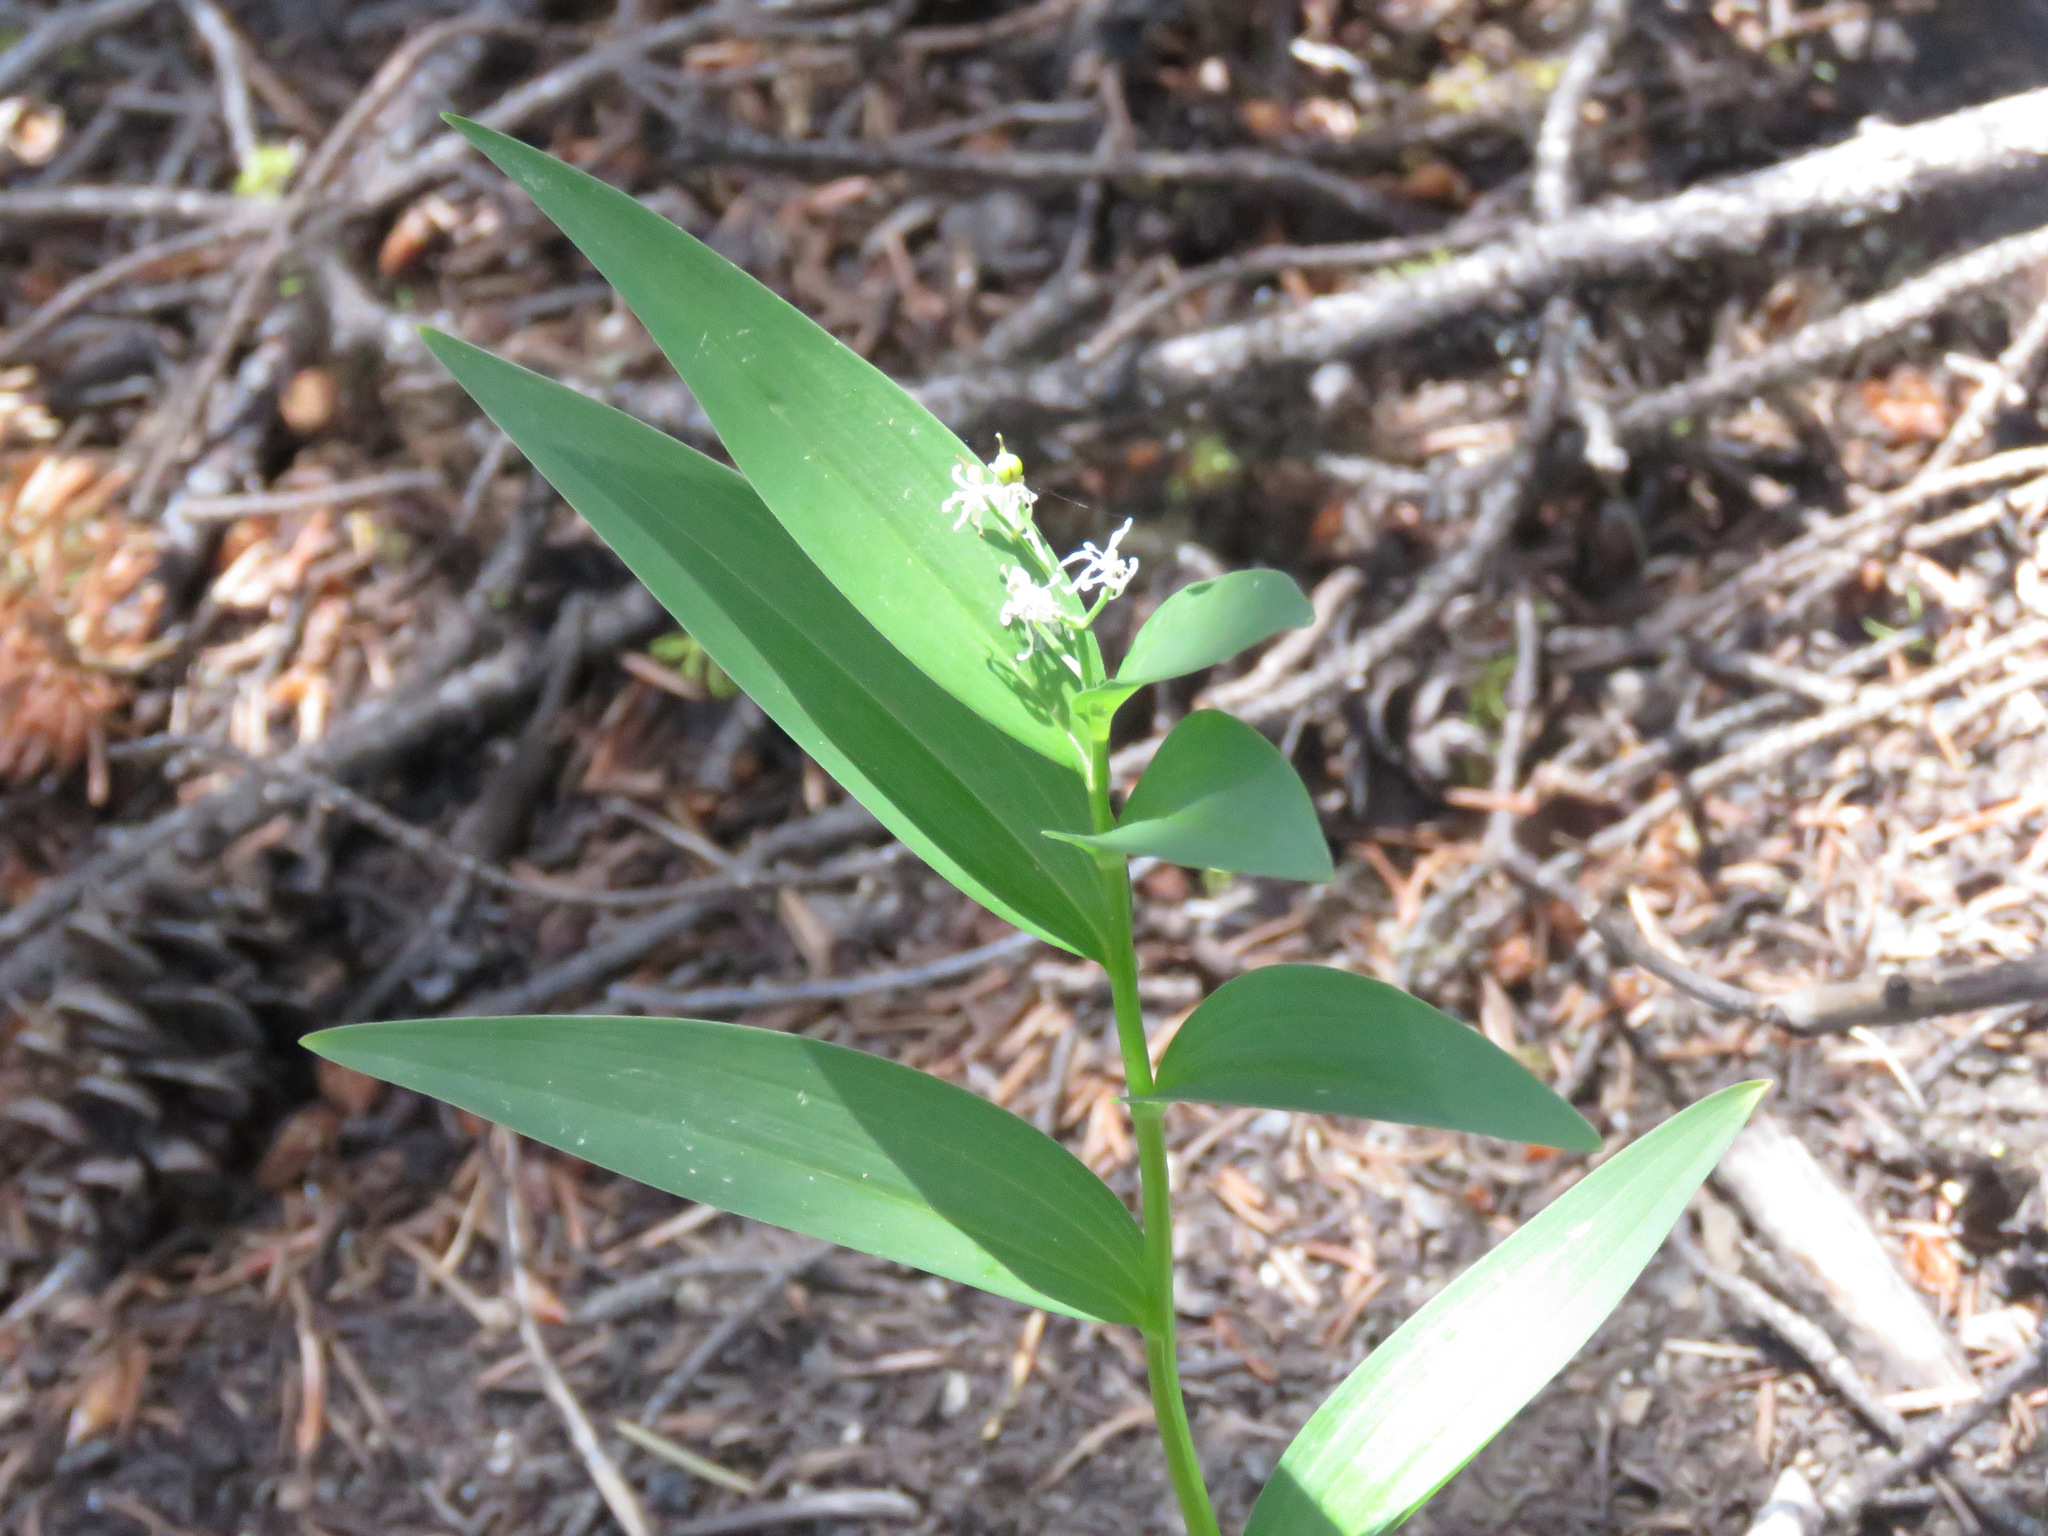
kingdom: Plantae
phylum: Tracheophyta
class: Liliopsida
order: Asparagales
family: Asparagaceae
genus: Maianthemum
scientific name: Maianthemum stellatum
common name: Little false solomon's seal
